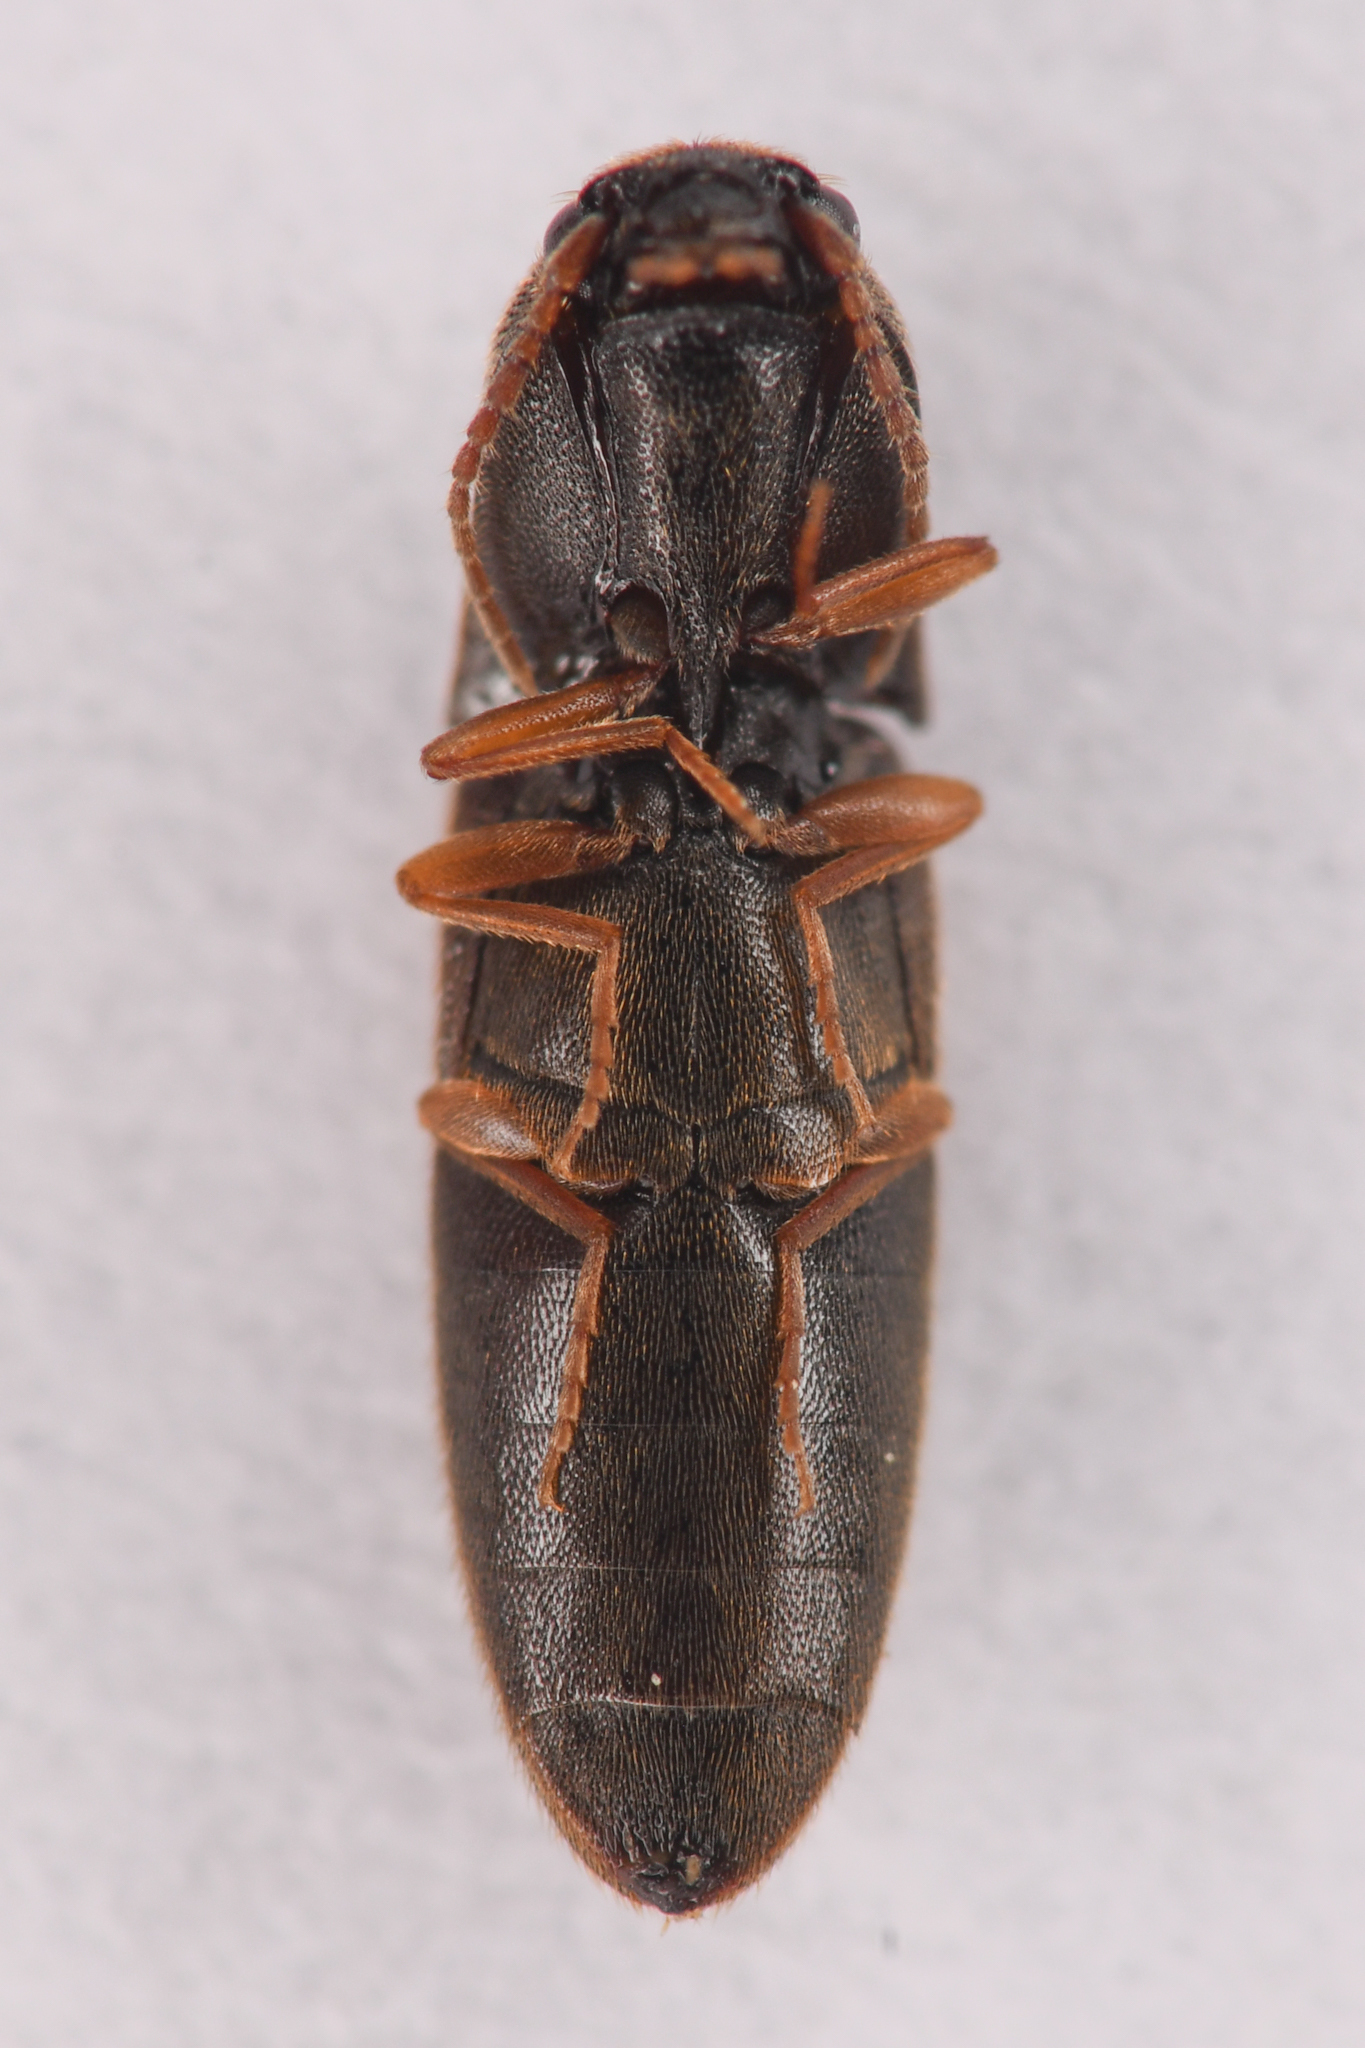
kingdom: Animalia
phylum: Arthropoda
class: Insecta
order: Coleoptera
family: Elateridae
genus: Idolus
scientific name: Idolus occidentalis
